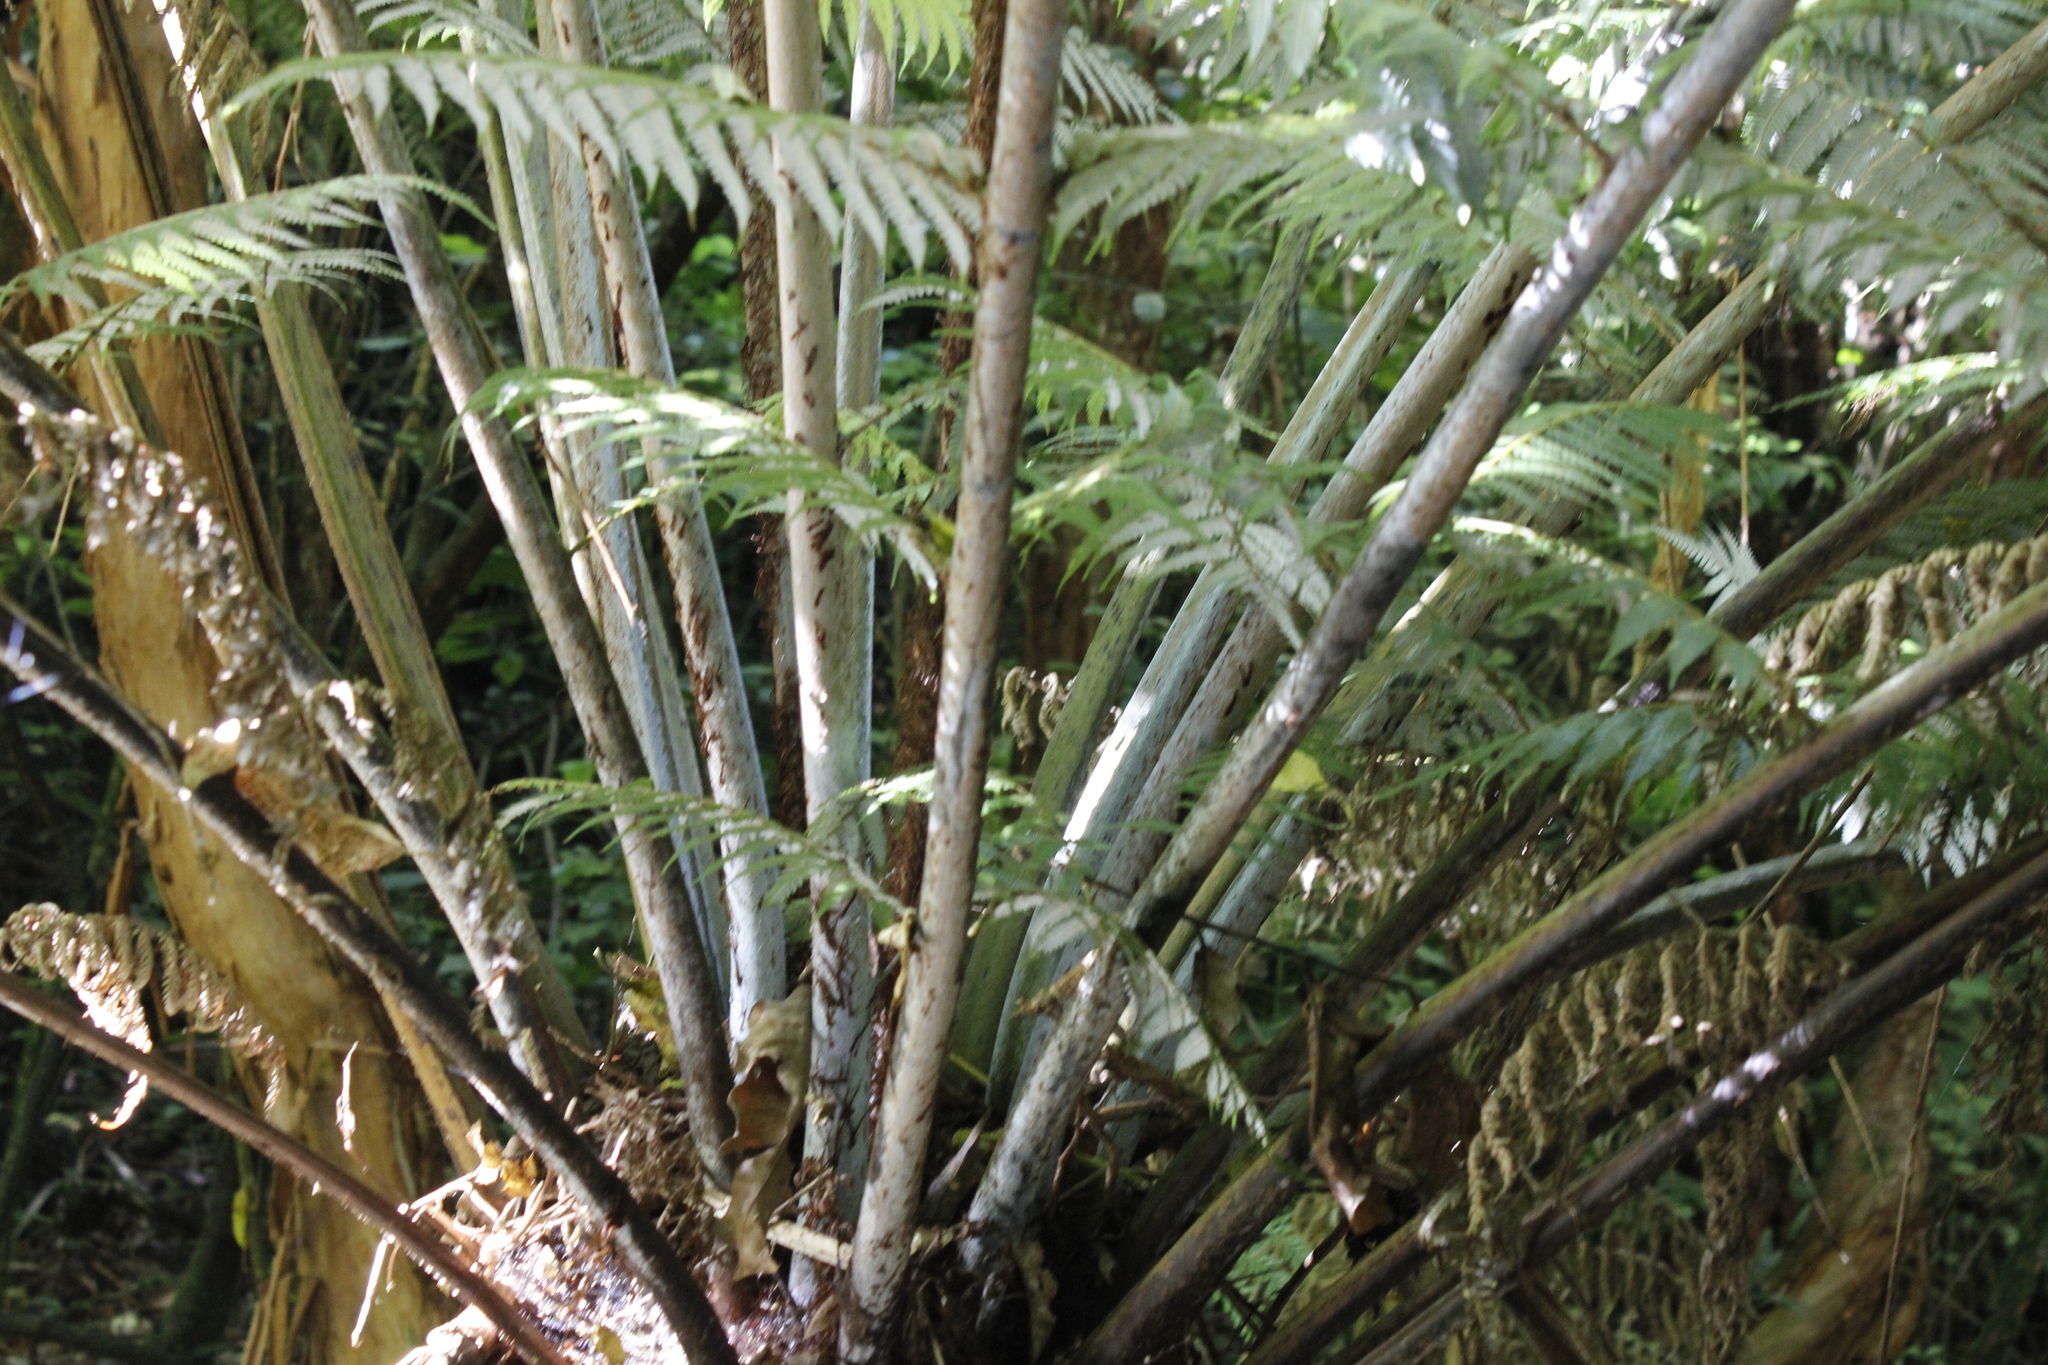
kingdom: Plantae
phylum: Tracheophyta
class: Polypodiopsida
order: Cyatheales
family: Cyatheaceae
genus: Alsophila
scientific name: Alsophila dealbata
